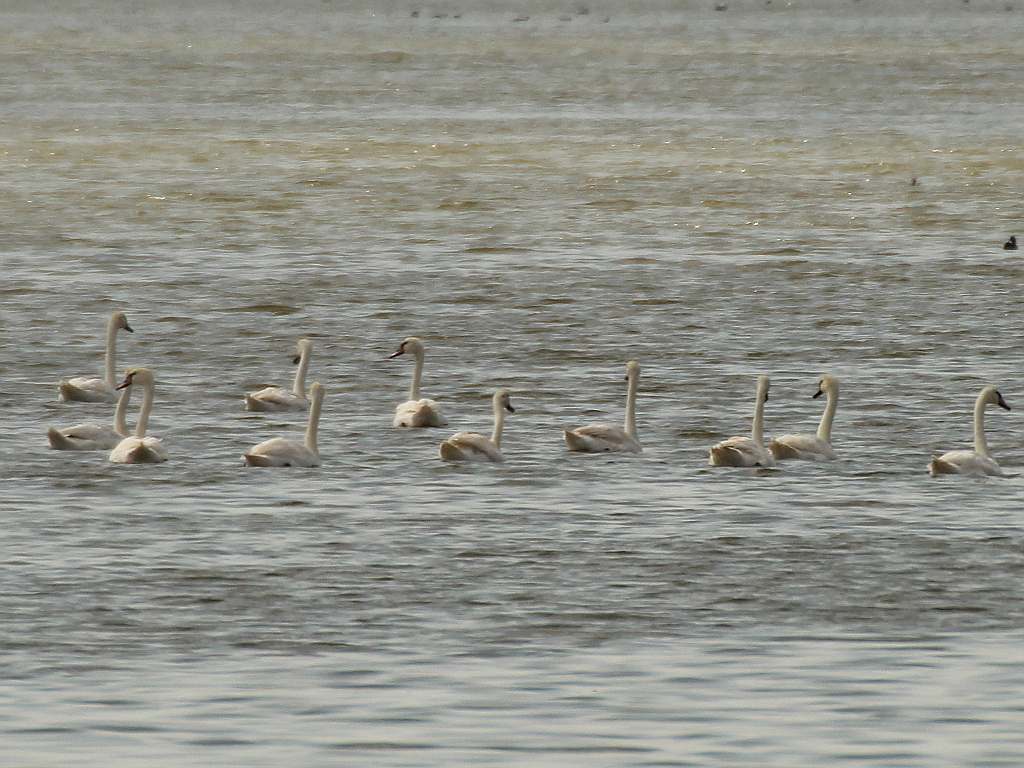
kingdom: Animalia
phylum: Chordata
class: Aves
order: Anseriformes
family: Anatidae
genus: Cygnus
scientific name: Cygnus olor
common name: Mute swan
